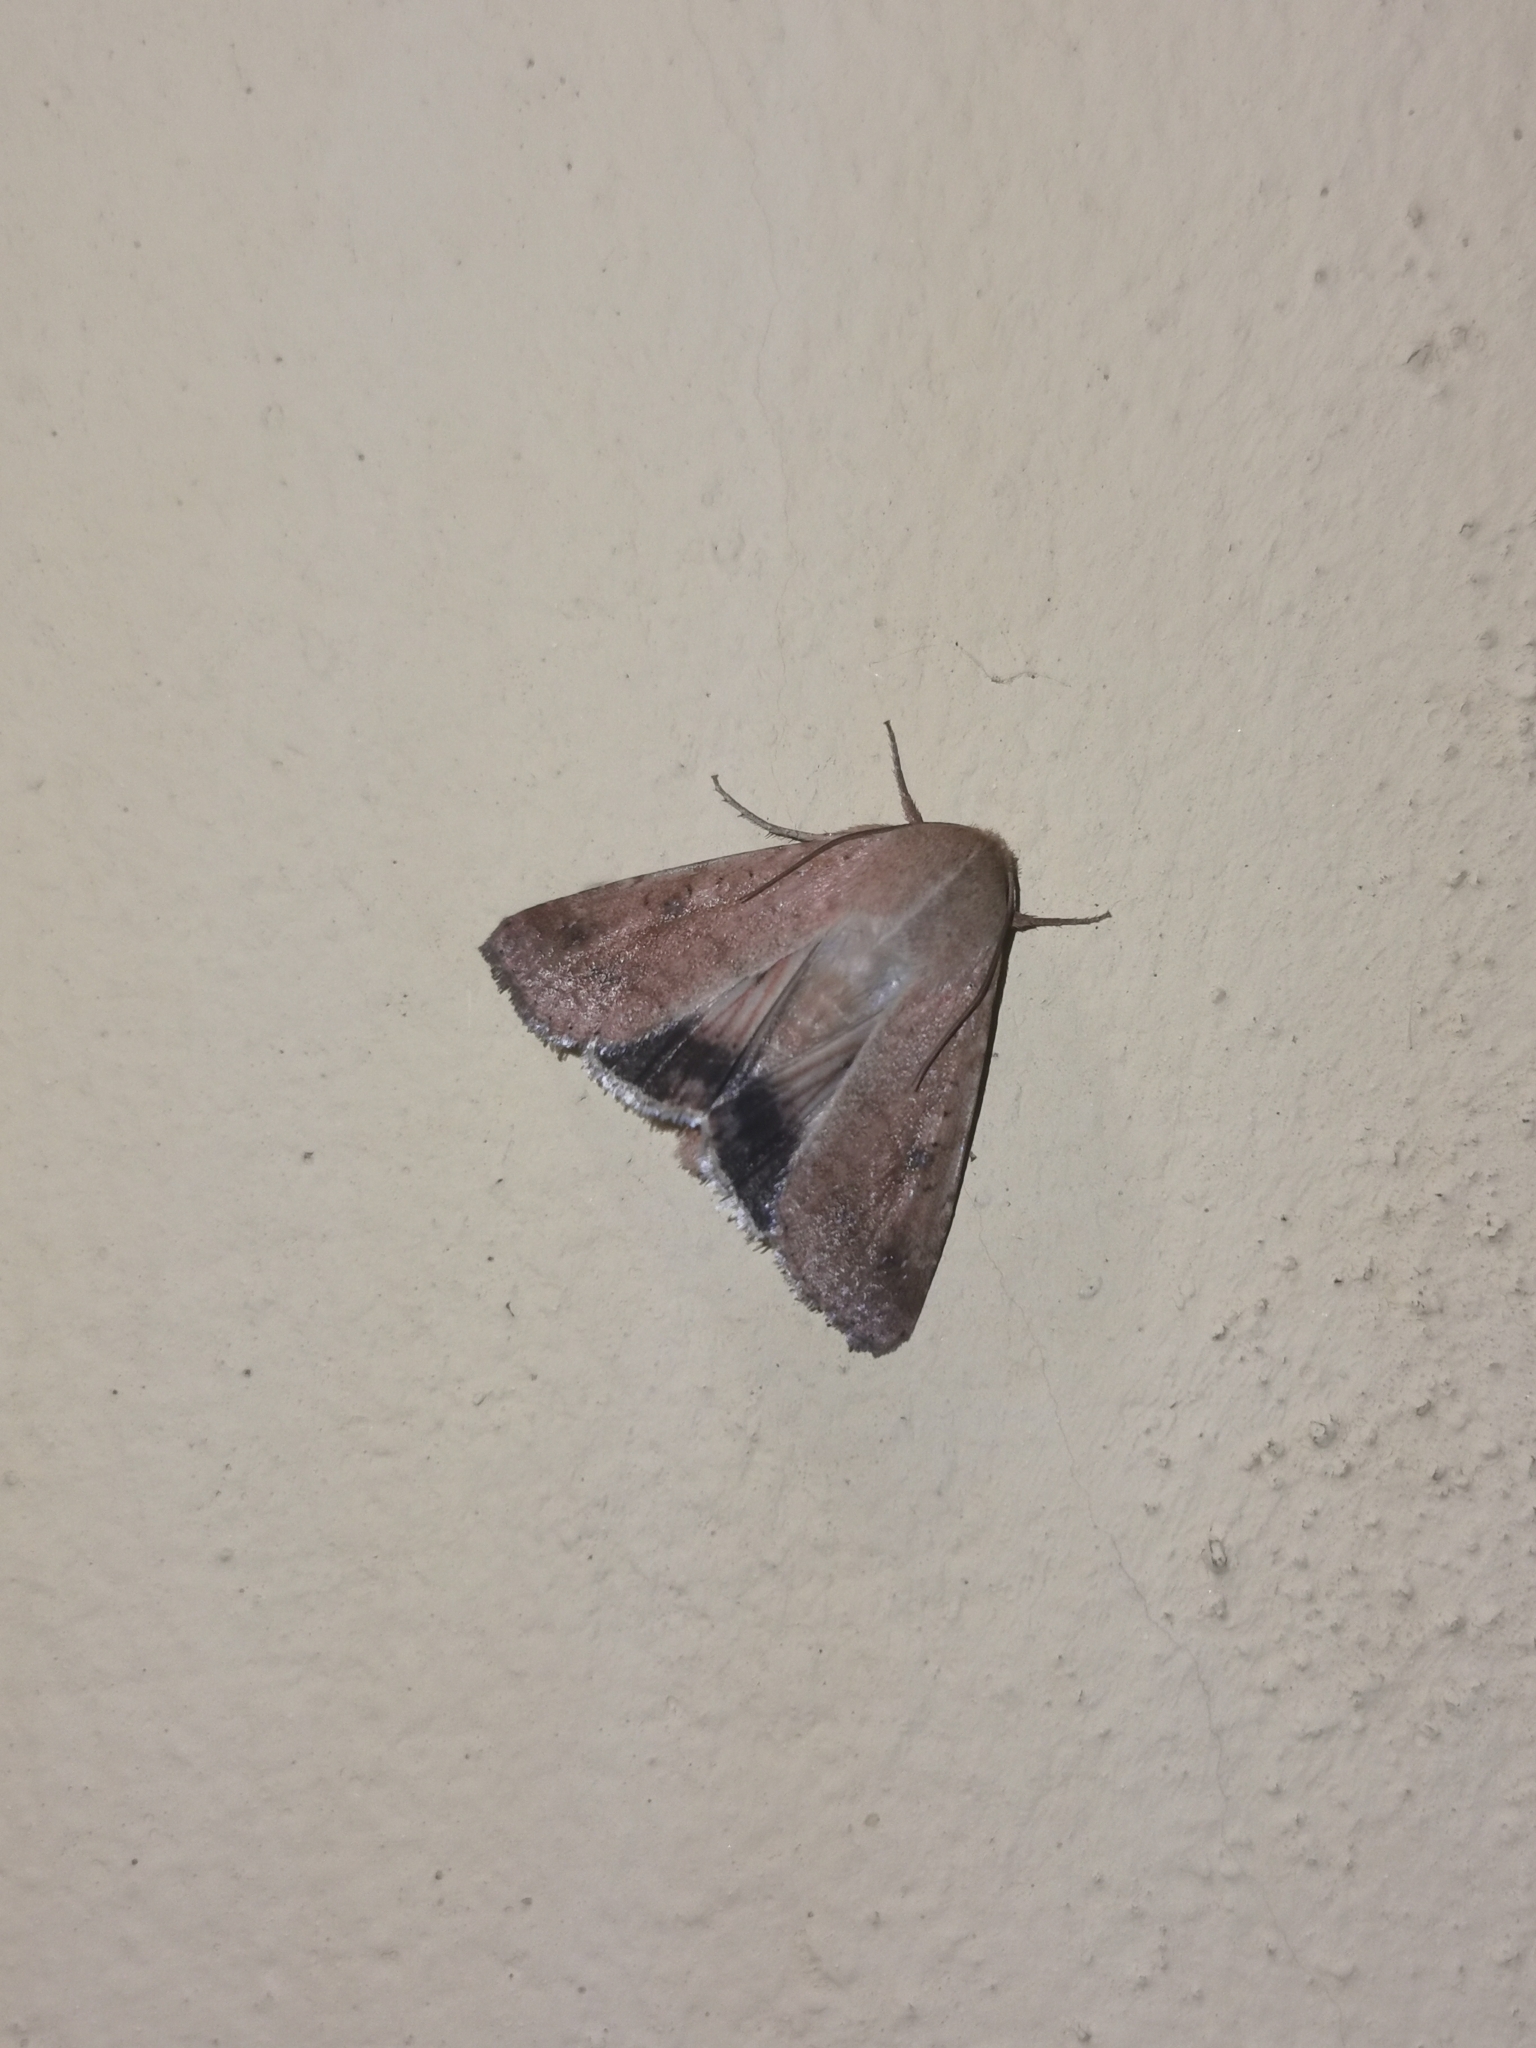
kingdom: Animalia
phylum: Arthropoda
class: Insecta
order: Lepidoptera
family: Noctuidae
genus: Helicoverpa
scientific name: Helicoverpa armigera
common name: Cotton bollworm
